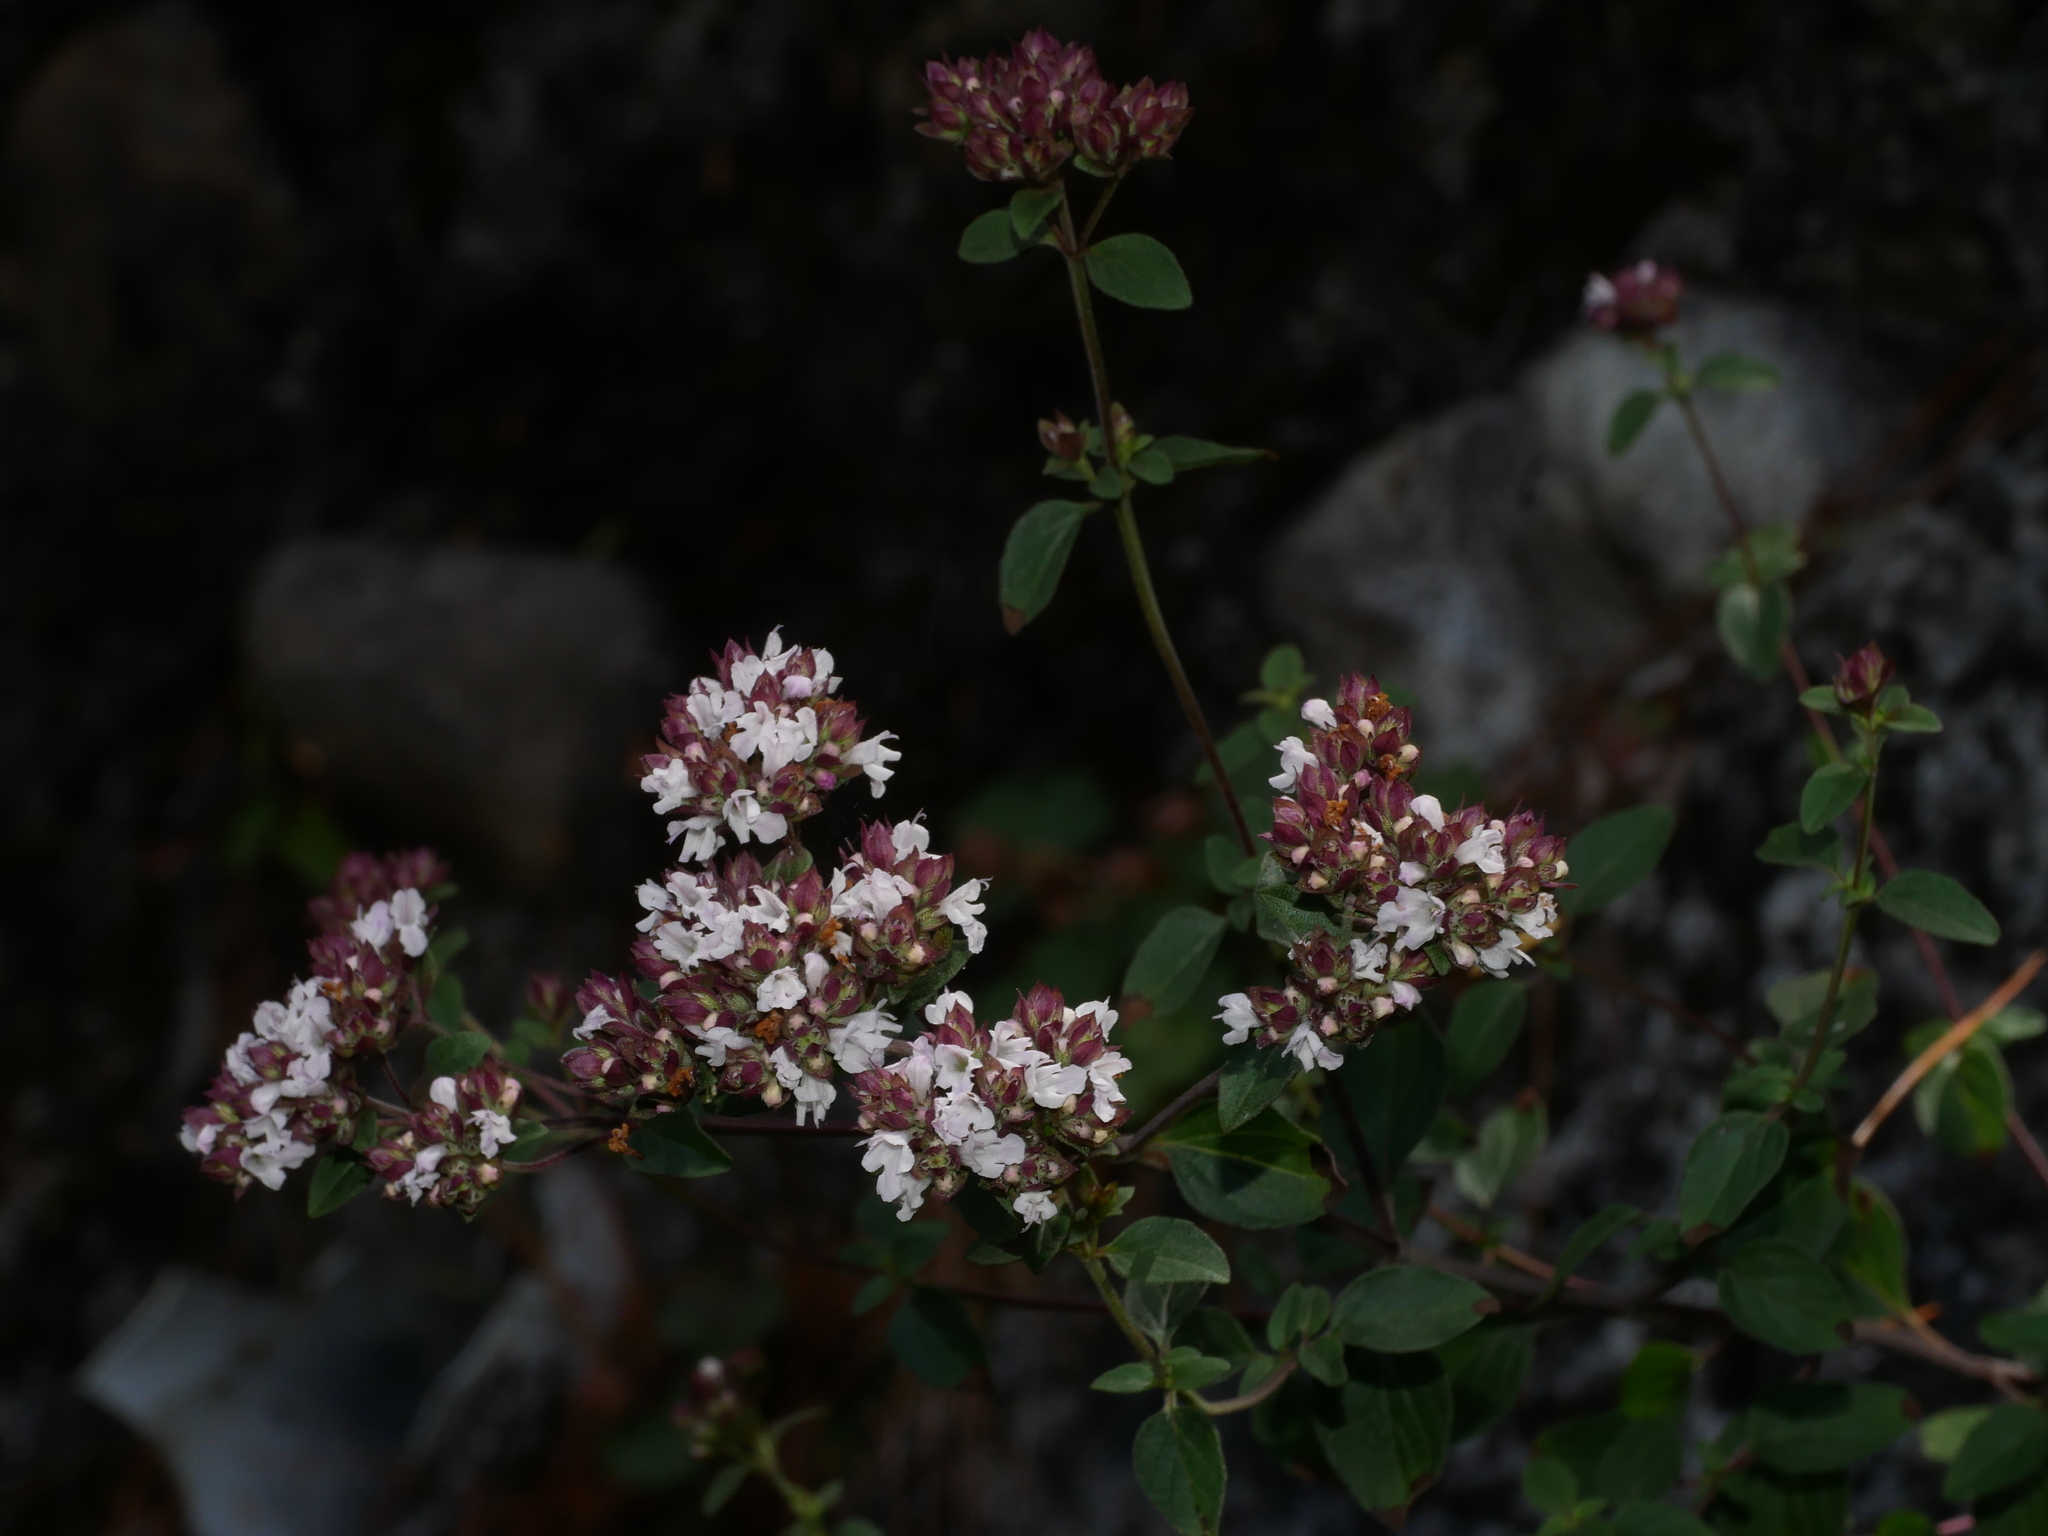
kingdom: Plantae
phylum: Tracheophyta
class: Magnoliopsida
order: Lamiales
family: Lamiaceae
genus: Origanum
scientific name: Origanum vulgare
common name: Wild marjoram
